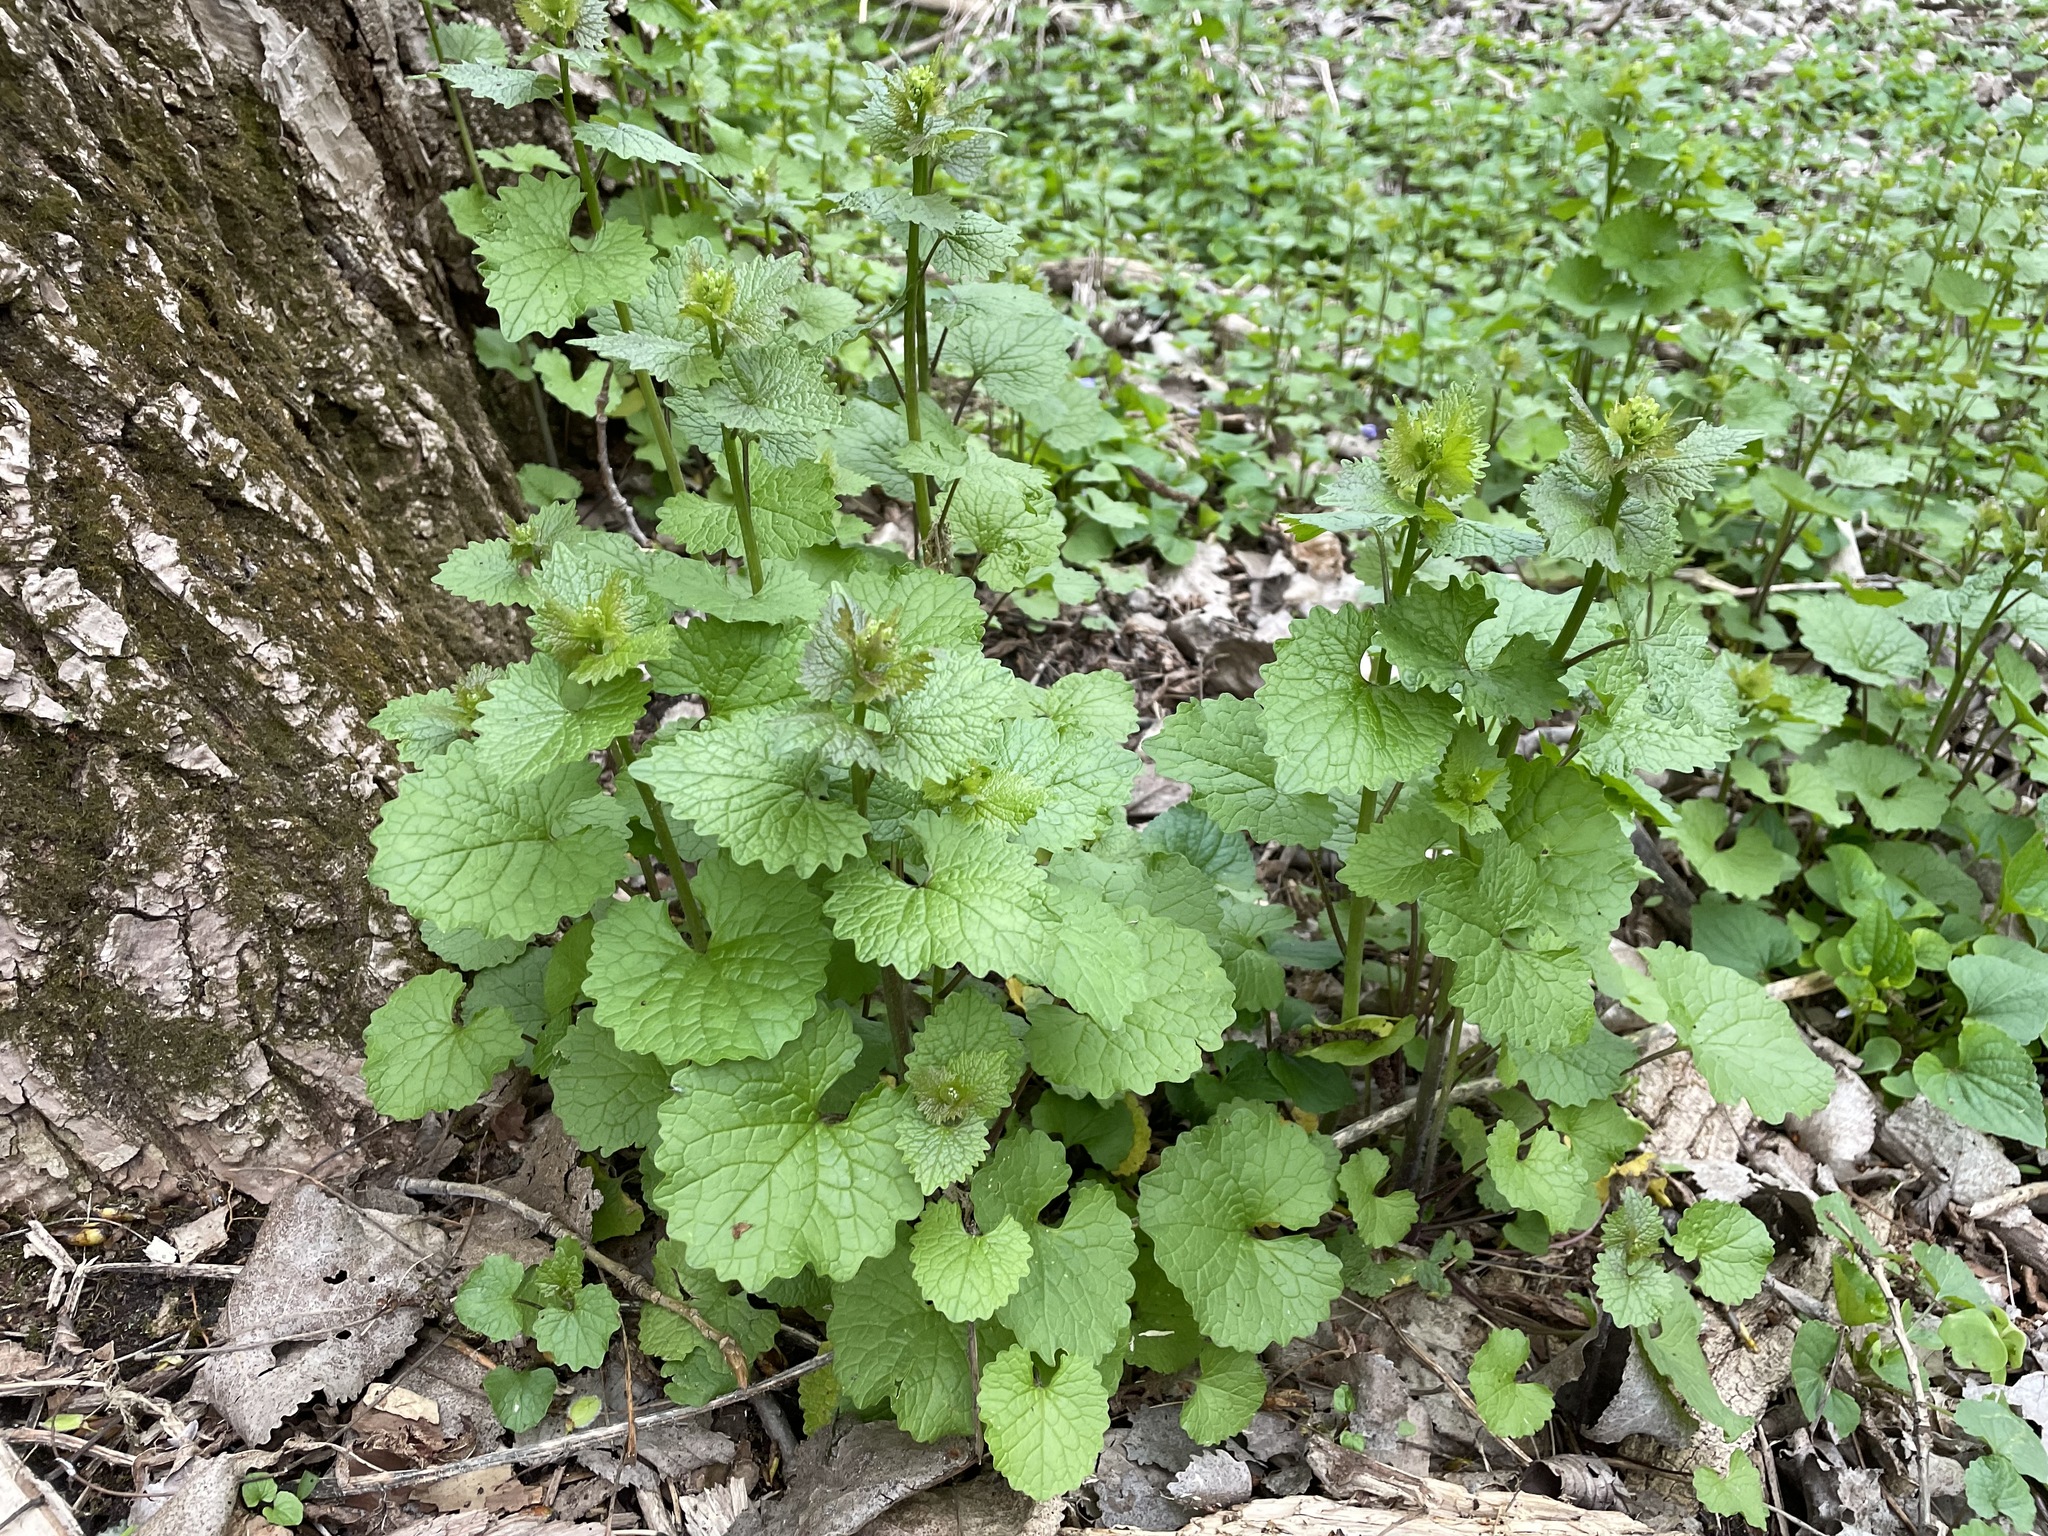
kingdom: Plantae
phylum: Tracheophyta
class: Magnoliopsida
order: Brassicales
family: Brassicaceae
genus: Alliaria
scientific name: Alliaria petiolata
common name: Garlic mustard
